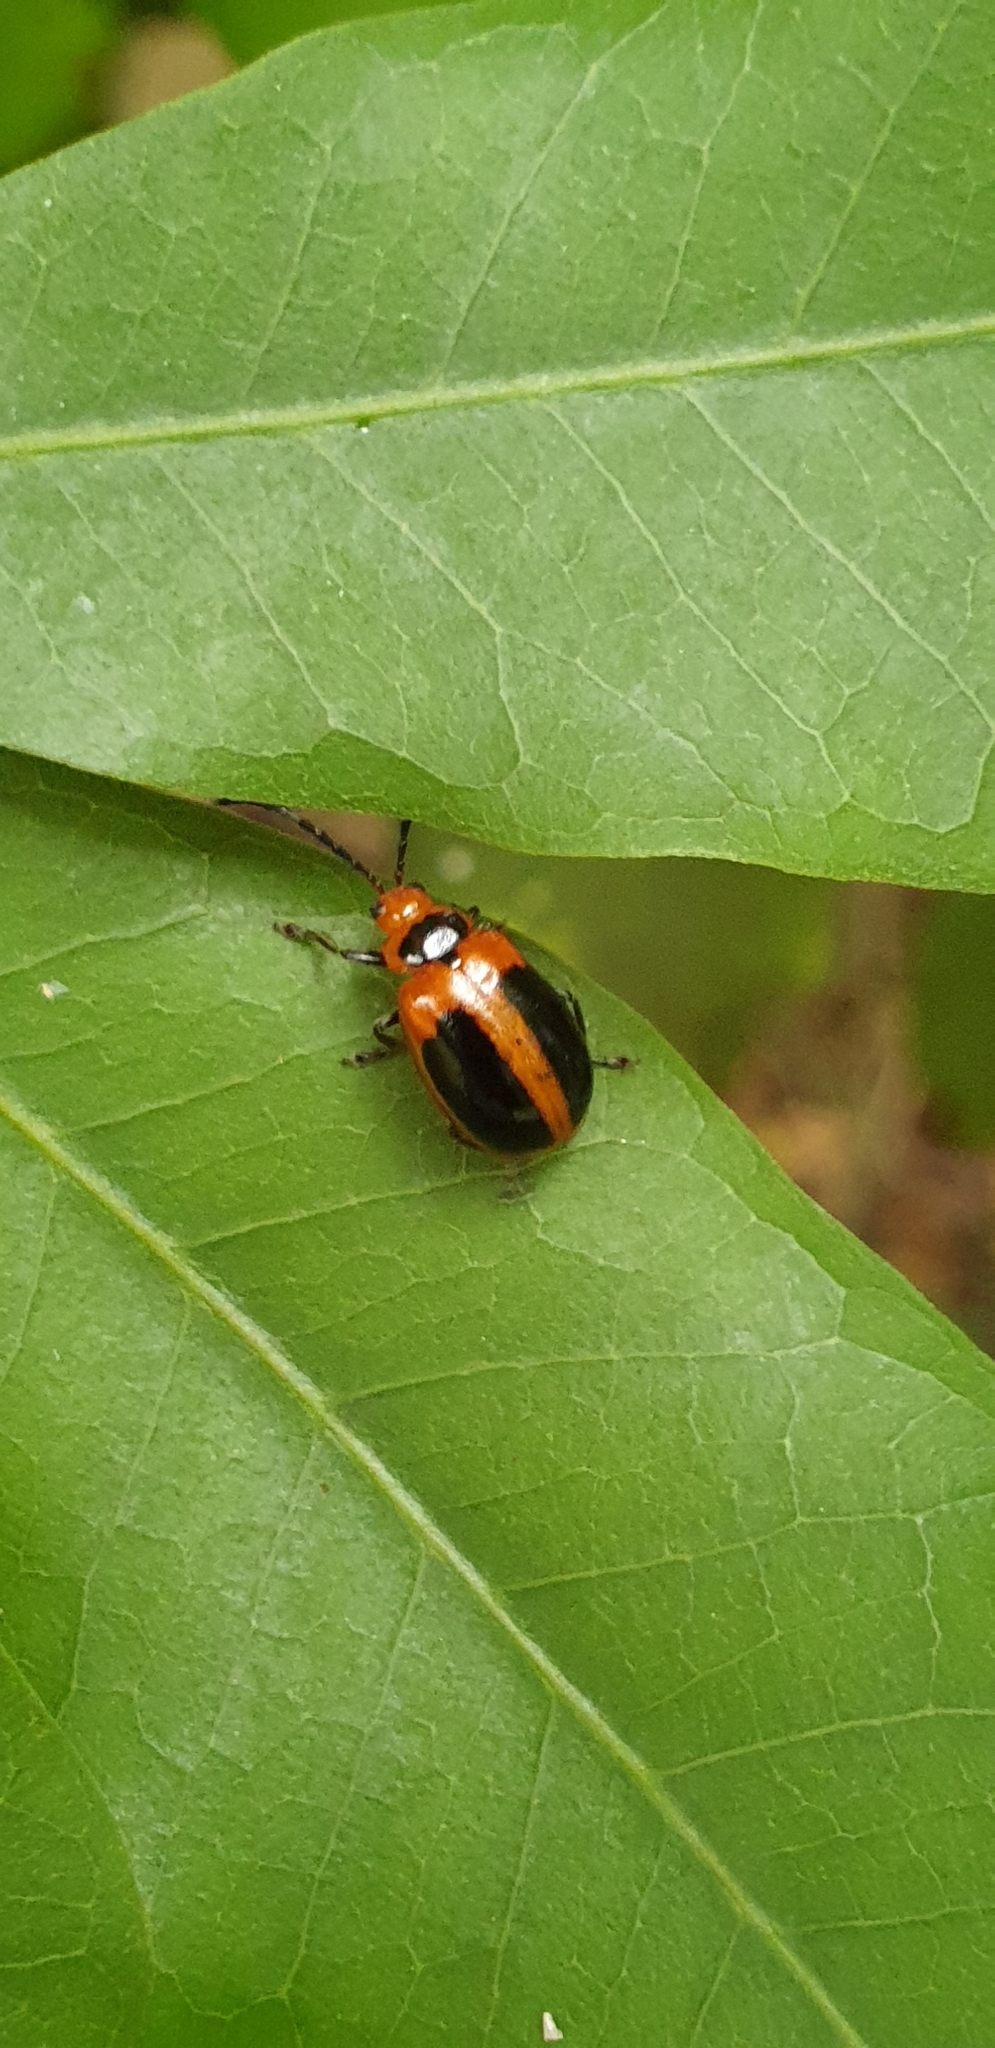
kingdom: Animalia
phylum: Arthropoda
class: Insecta
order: Coleoptera
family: Chrysomelidae
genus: Oides
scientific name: Oides
